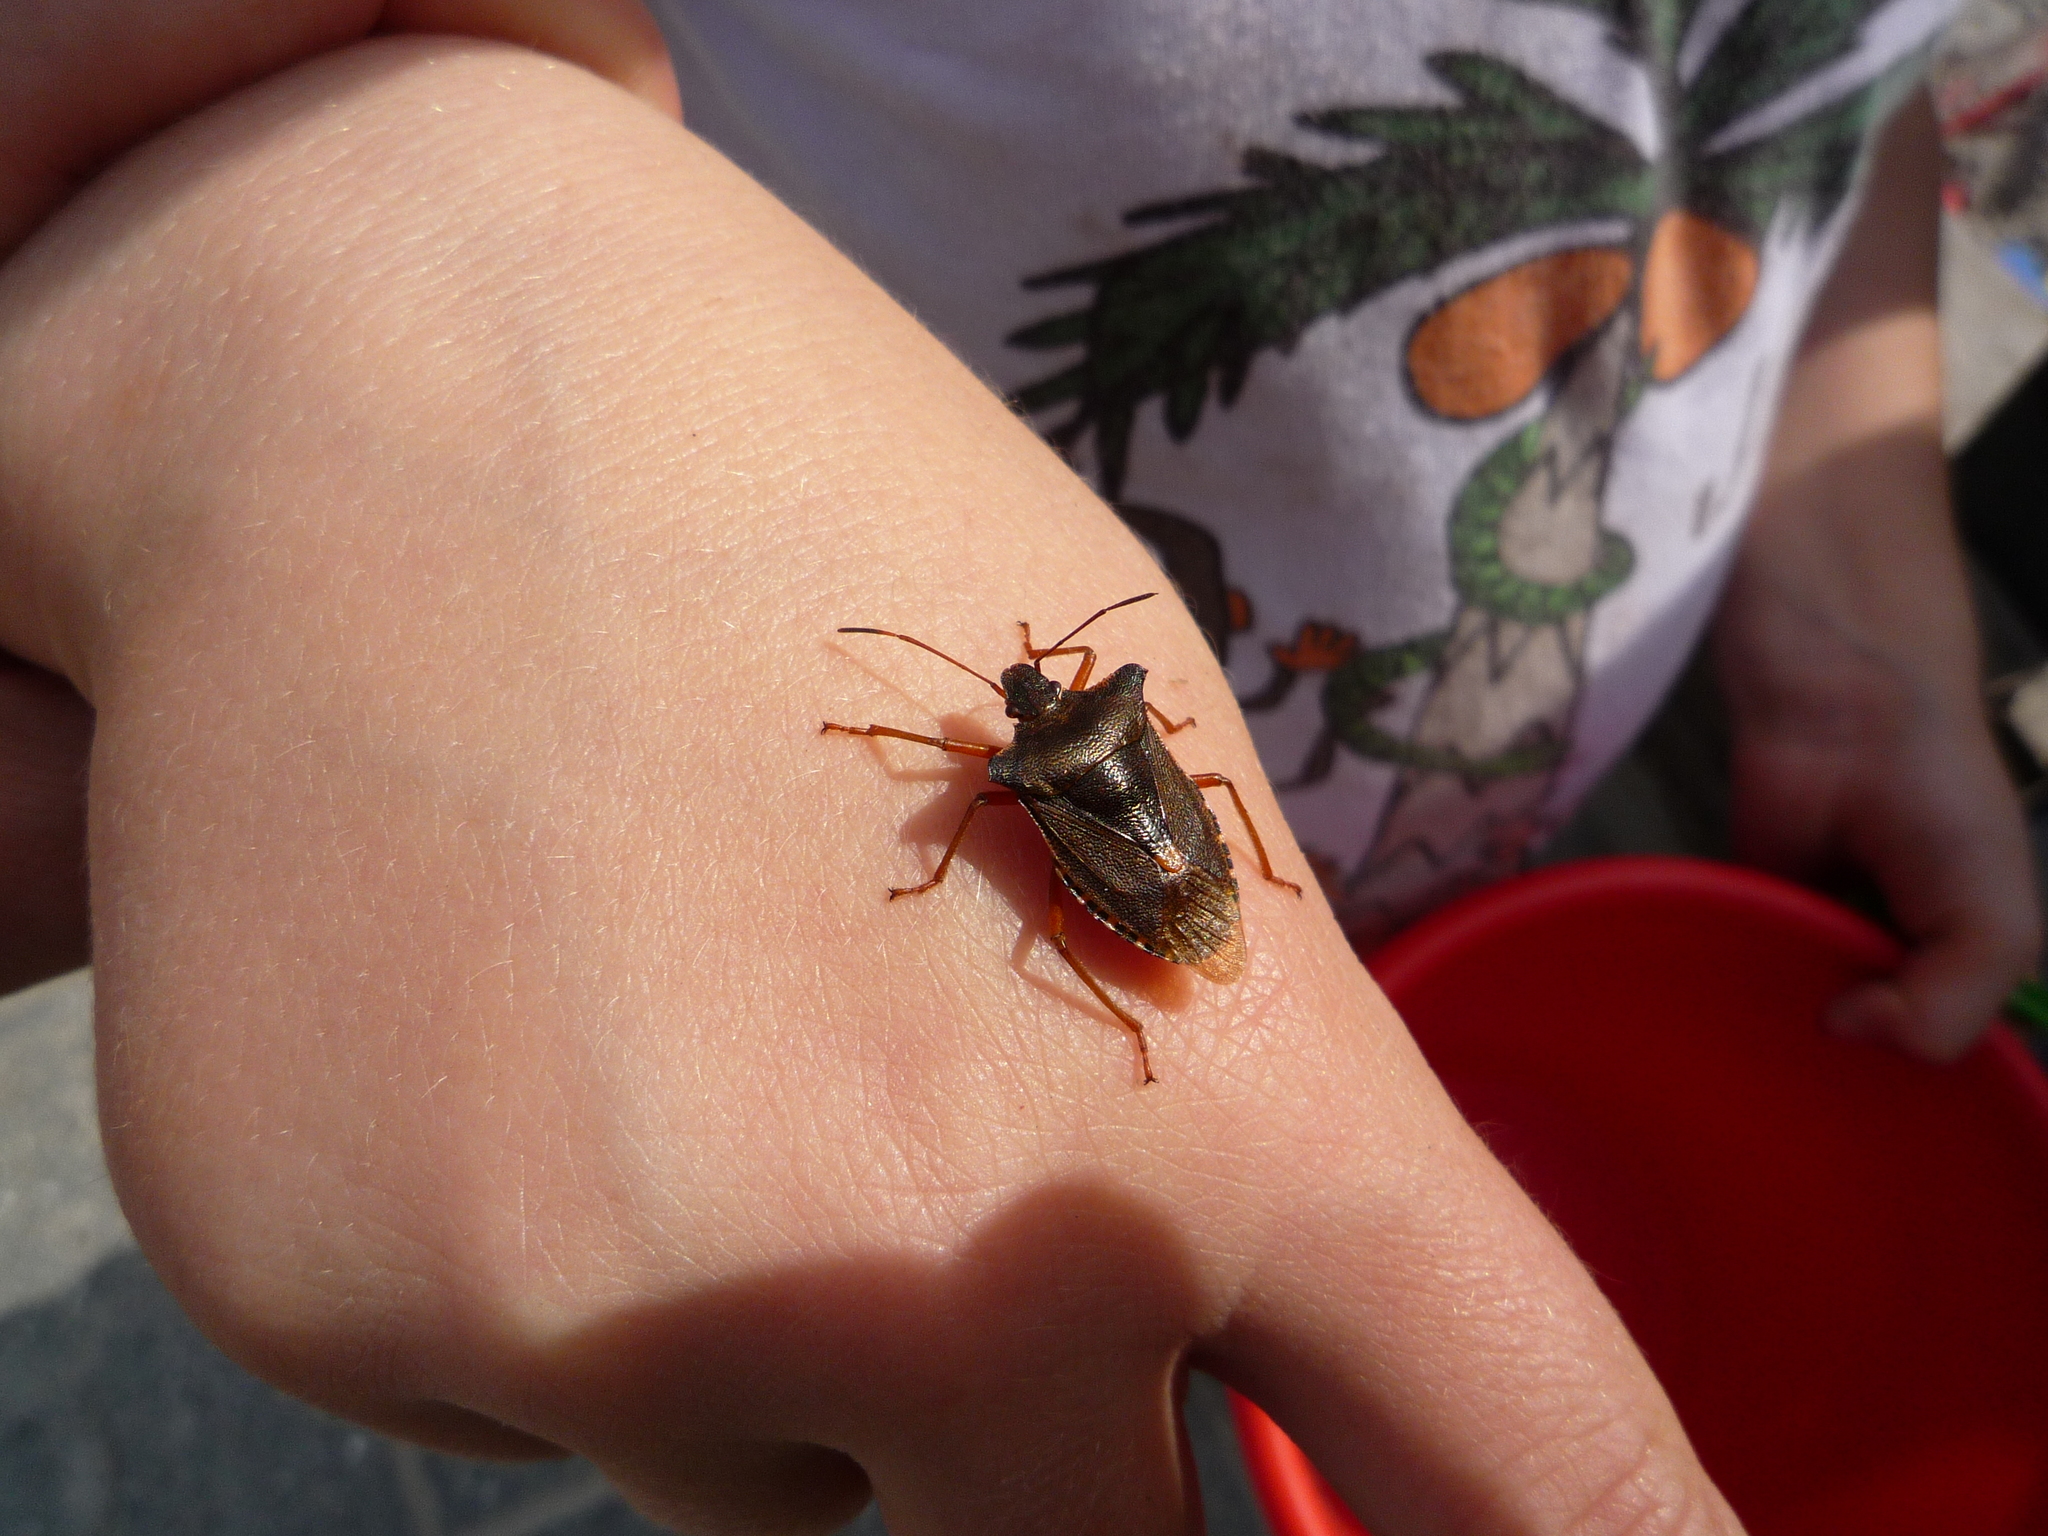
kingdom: Animalia
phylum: Arthropoda
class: Insecta
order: Hemiptera
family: Pentatomidae
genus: Pentatoma
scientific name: Pentatoma rufipes
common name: Forest bug
